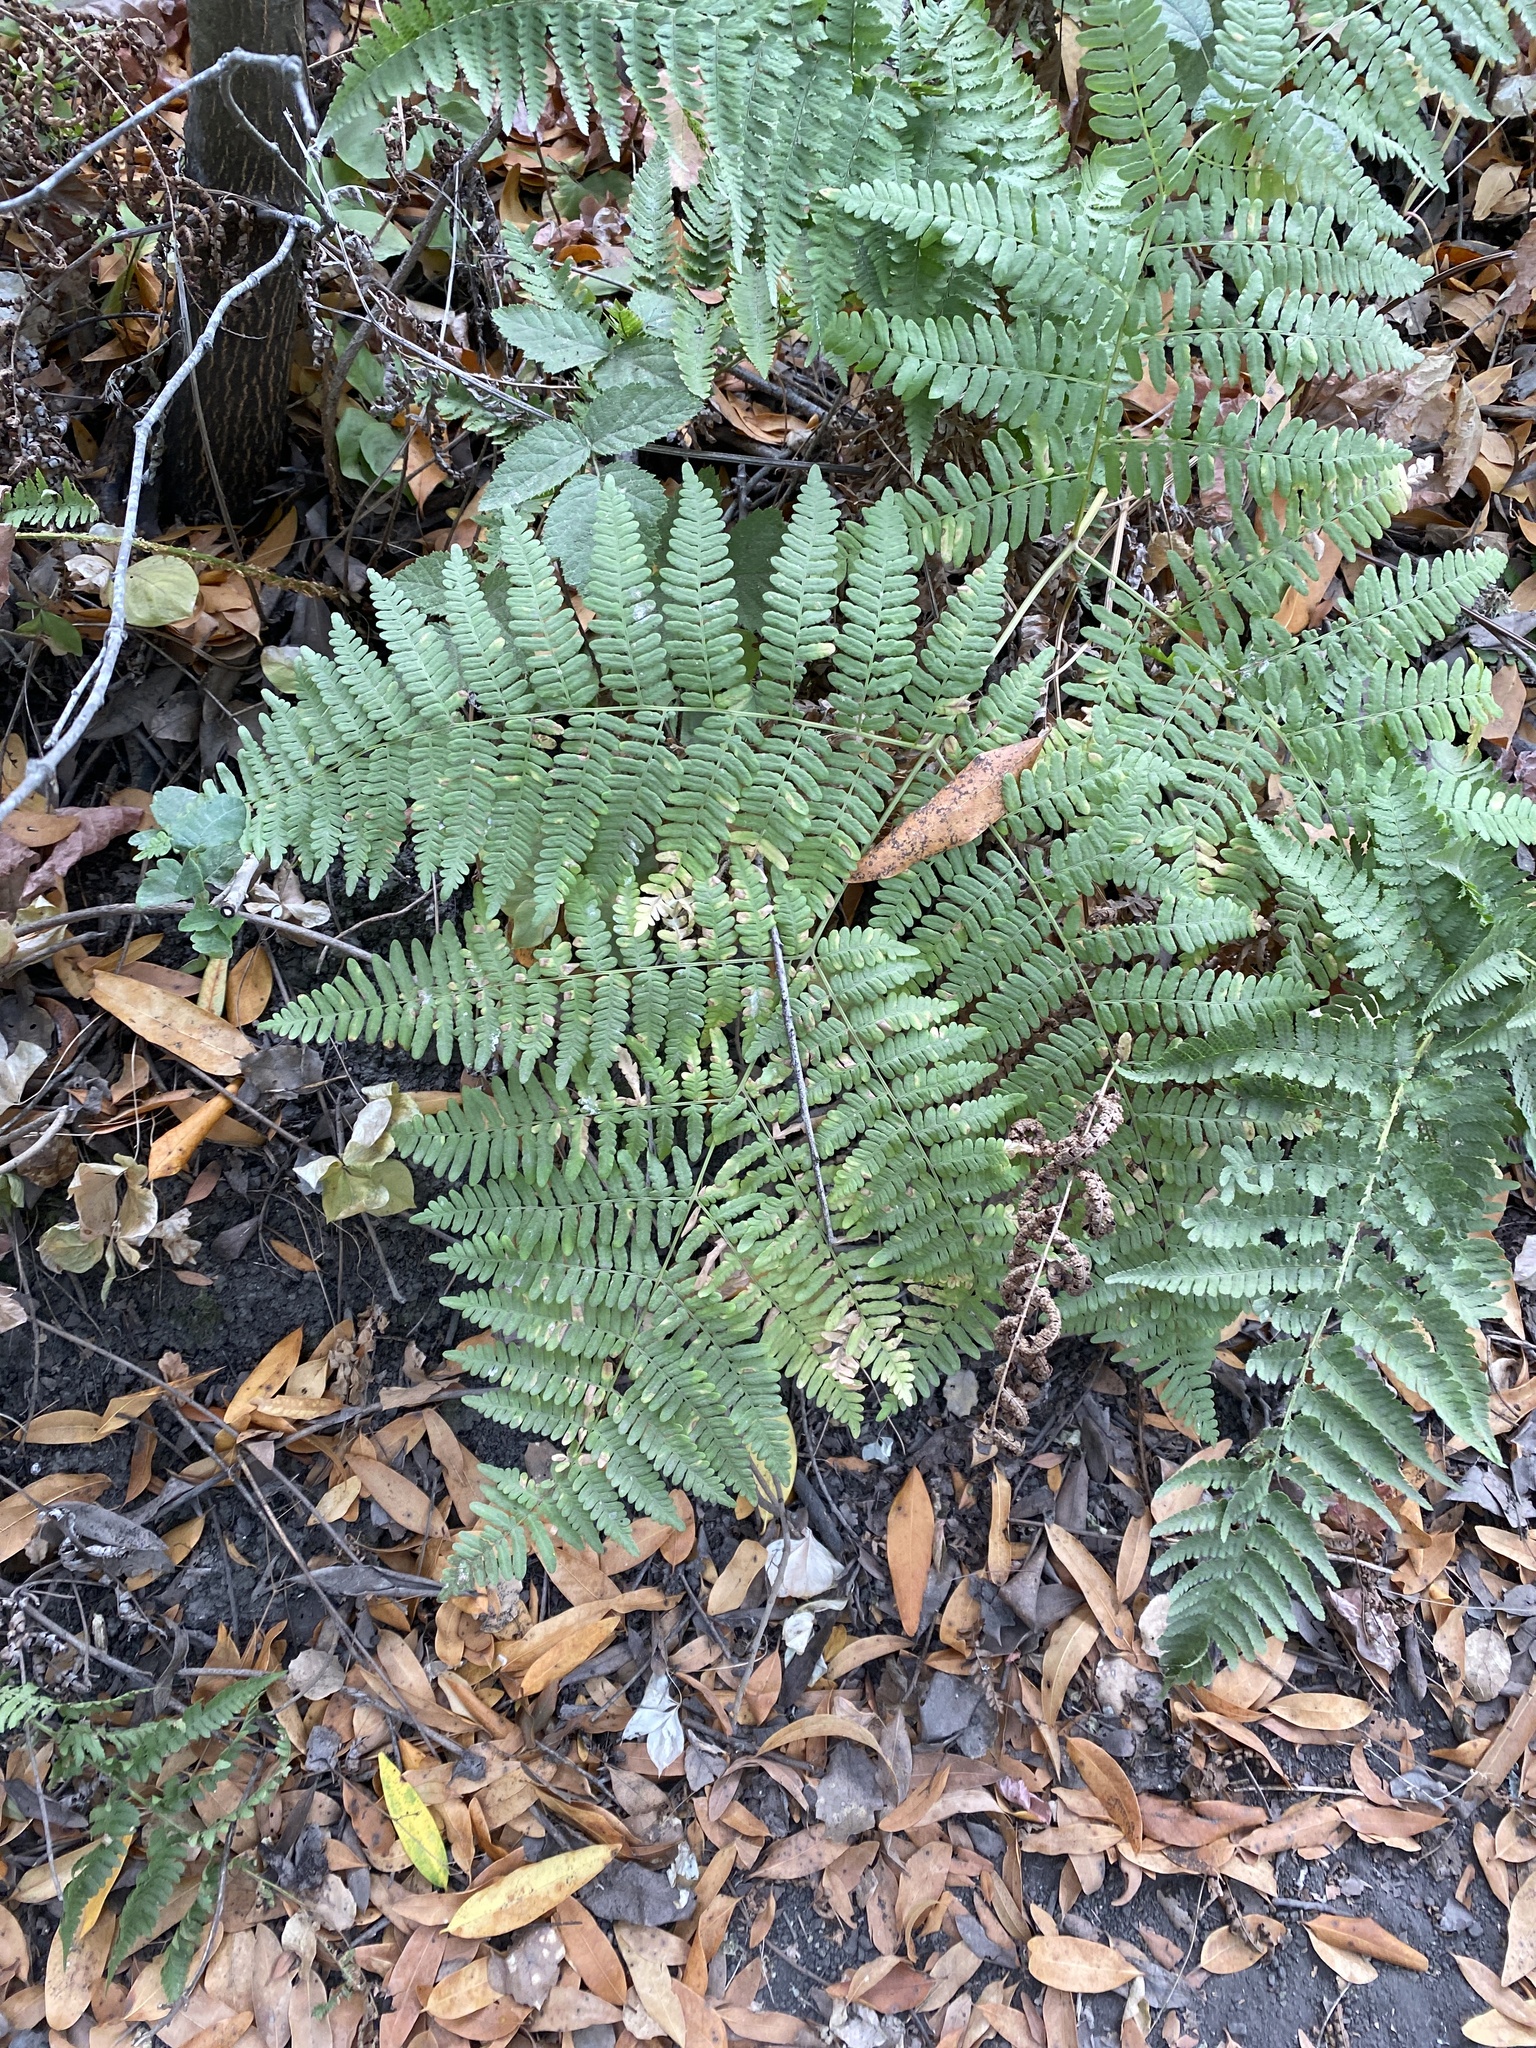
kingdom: Plantae
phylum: Tracheophyta
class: Polypodiopsida
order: Polypodiales
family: Dennstaedtiaceae
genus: Pteridium
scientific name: Pteridium aquilinum
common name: Bracken
